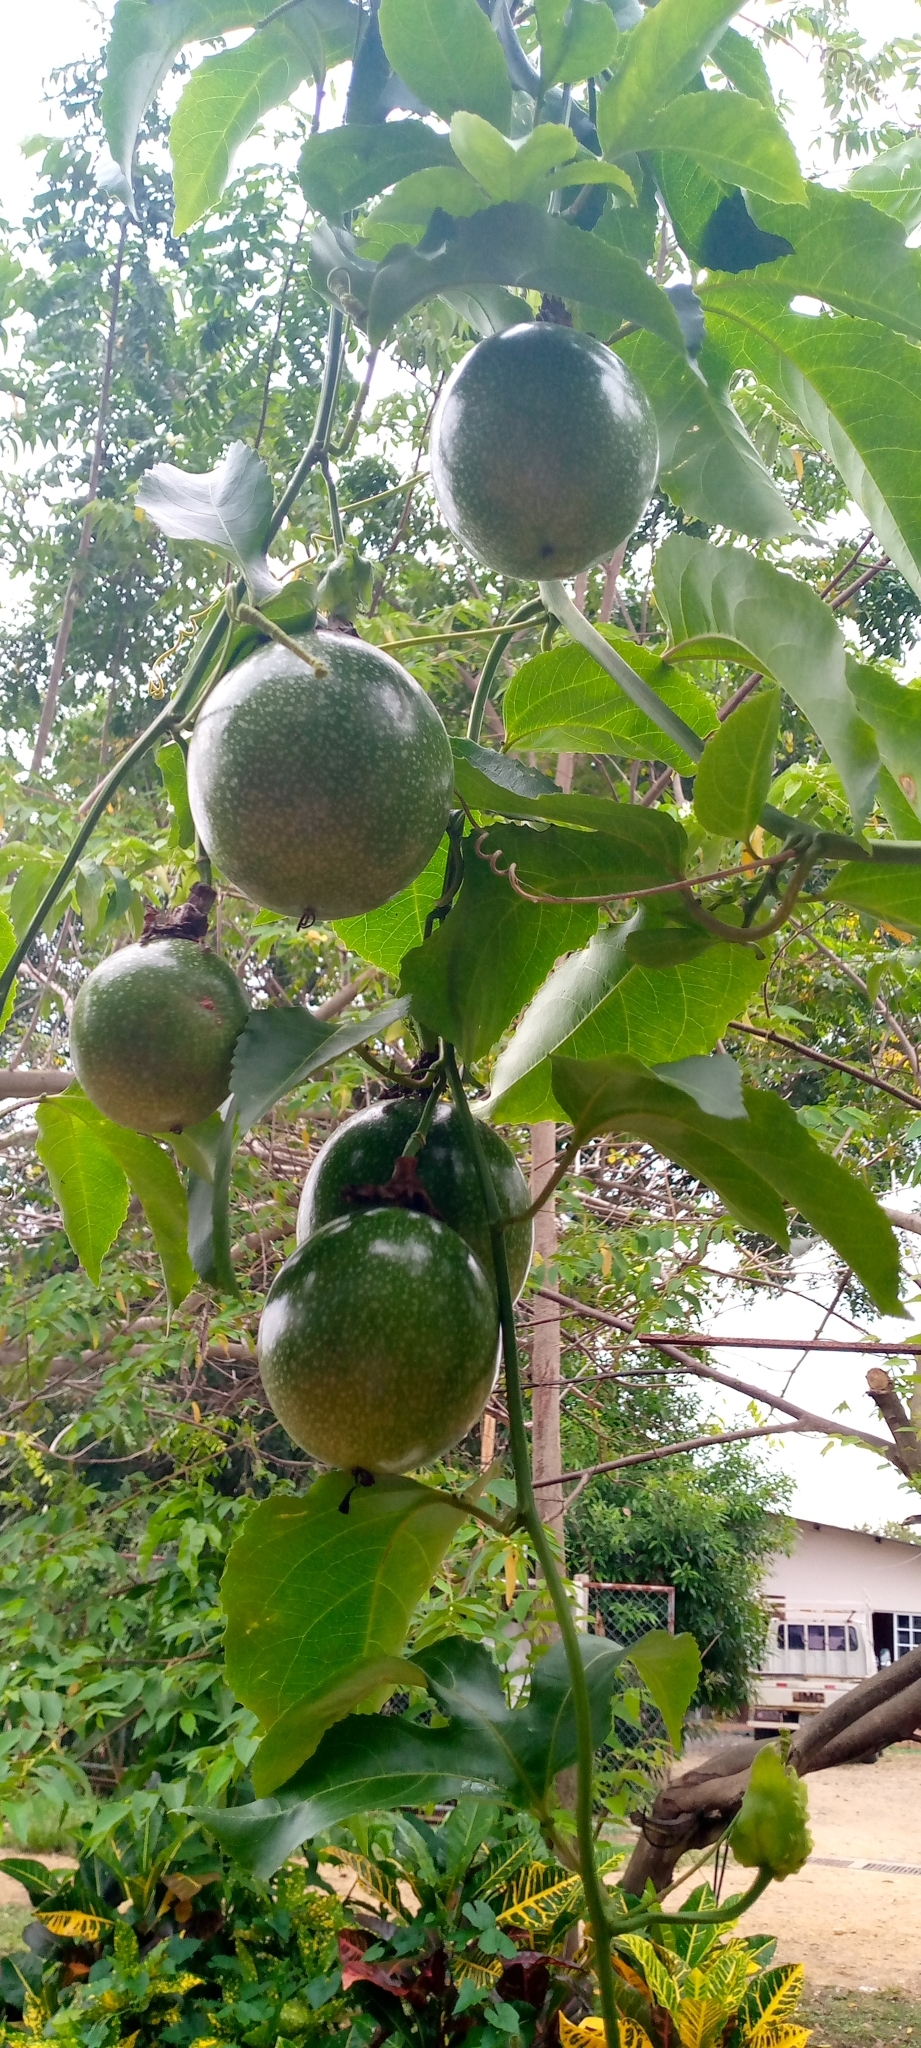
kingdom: Plantae
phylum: Tracheophyta
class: Magnoliopsida
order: Malpighiales
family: Passifloraceae
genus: Passiflora
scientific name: Passiflora edulis
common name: Purple granadilla
